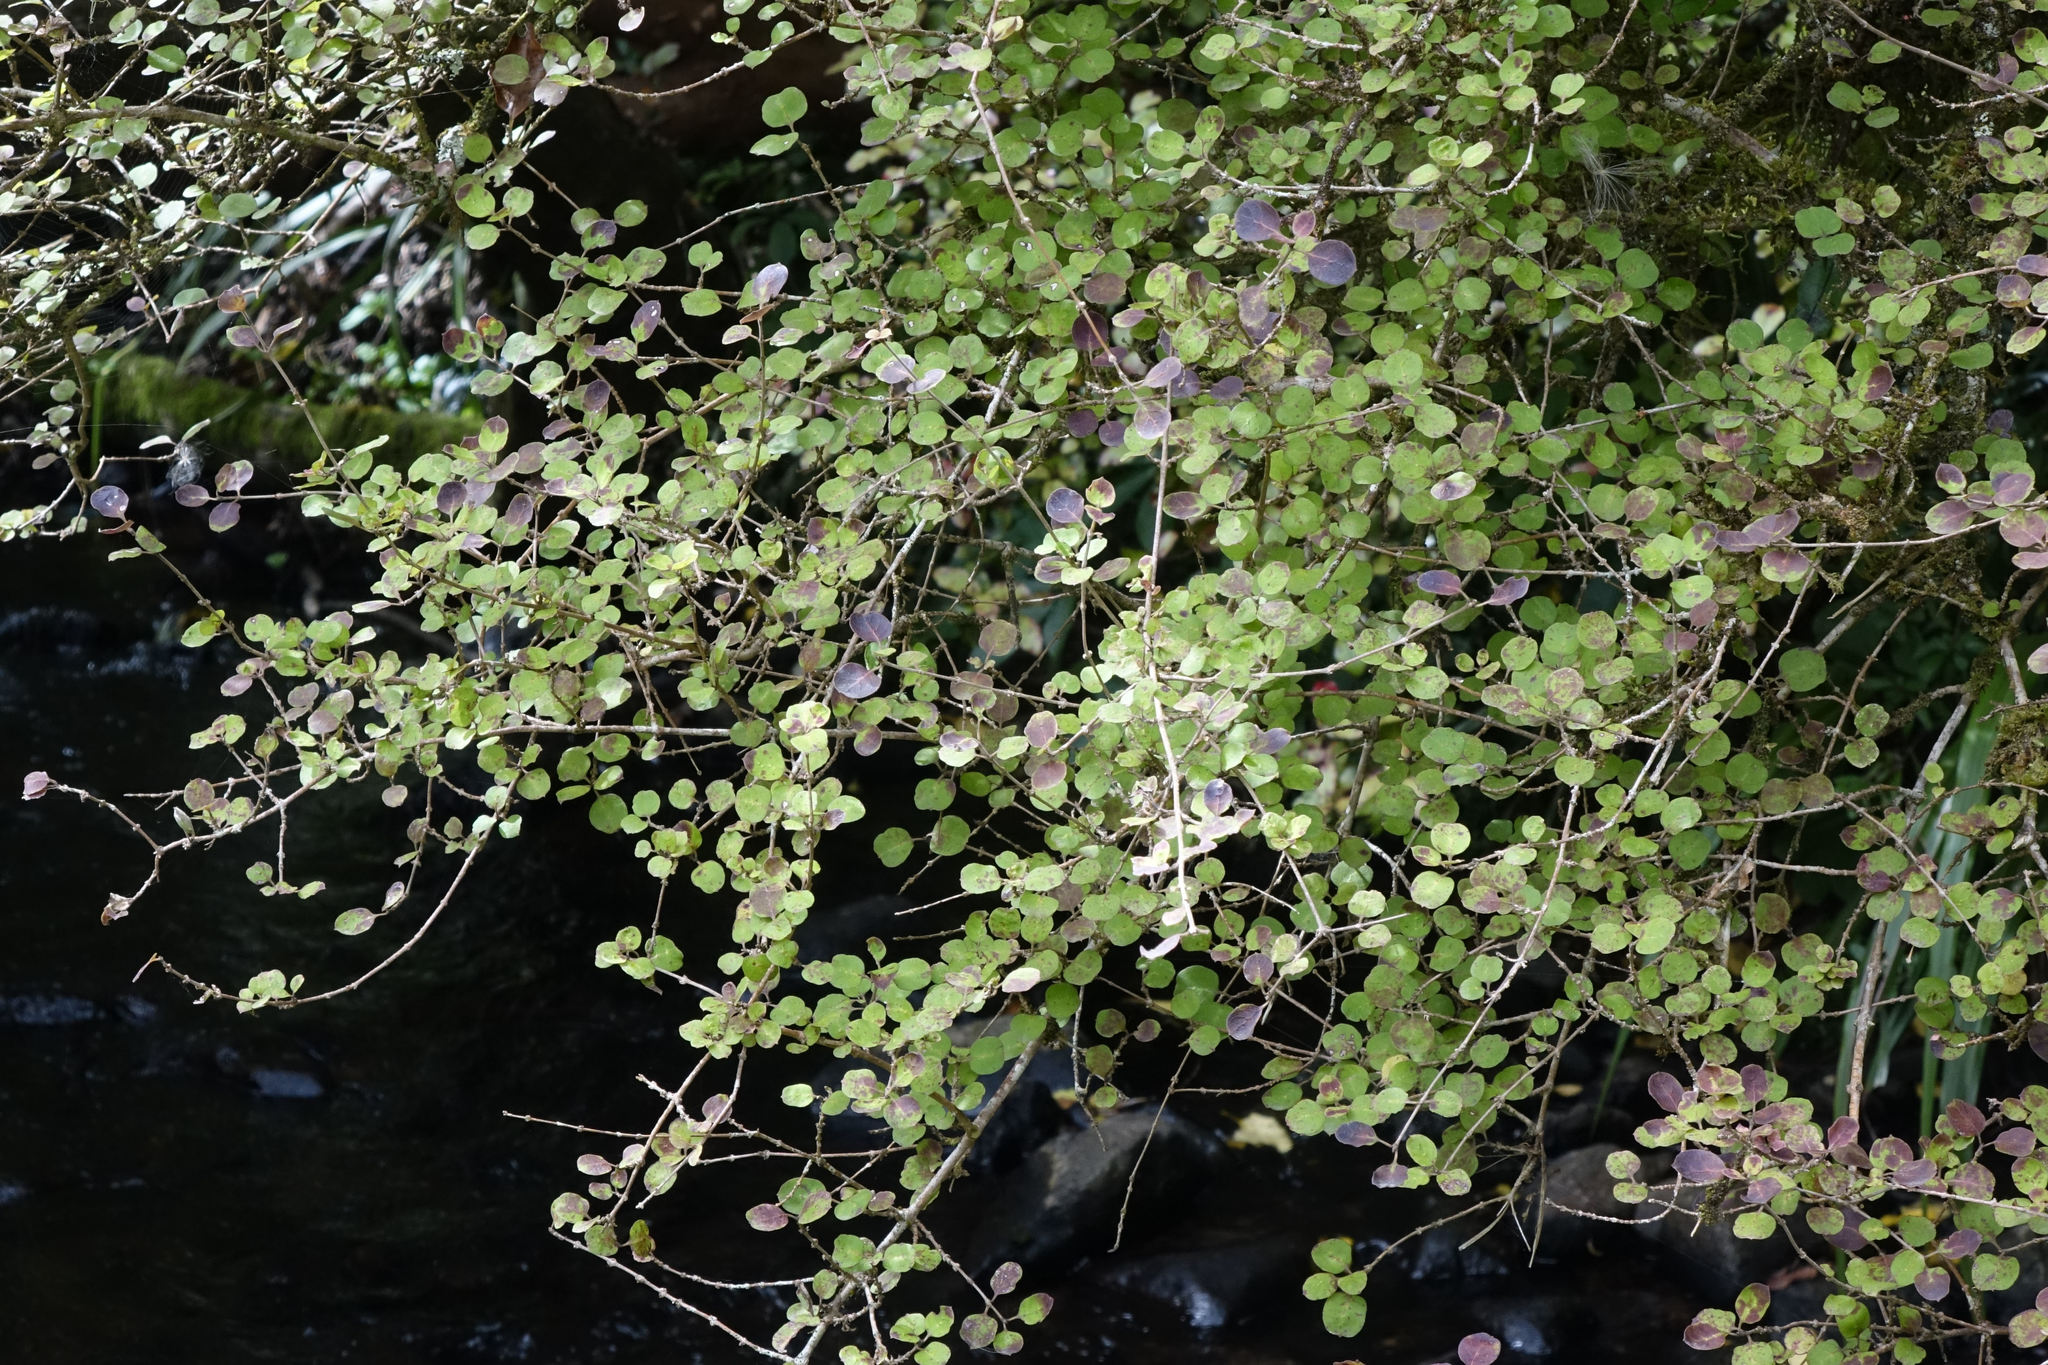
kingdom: Plantae
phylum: Tracheophyta
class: Magnoliopsida
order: Gentianales
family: Rubiaceae
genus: Coprosma
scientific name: Coprosma rotundifolia
